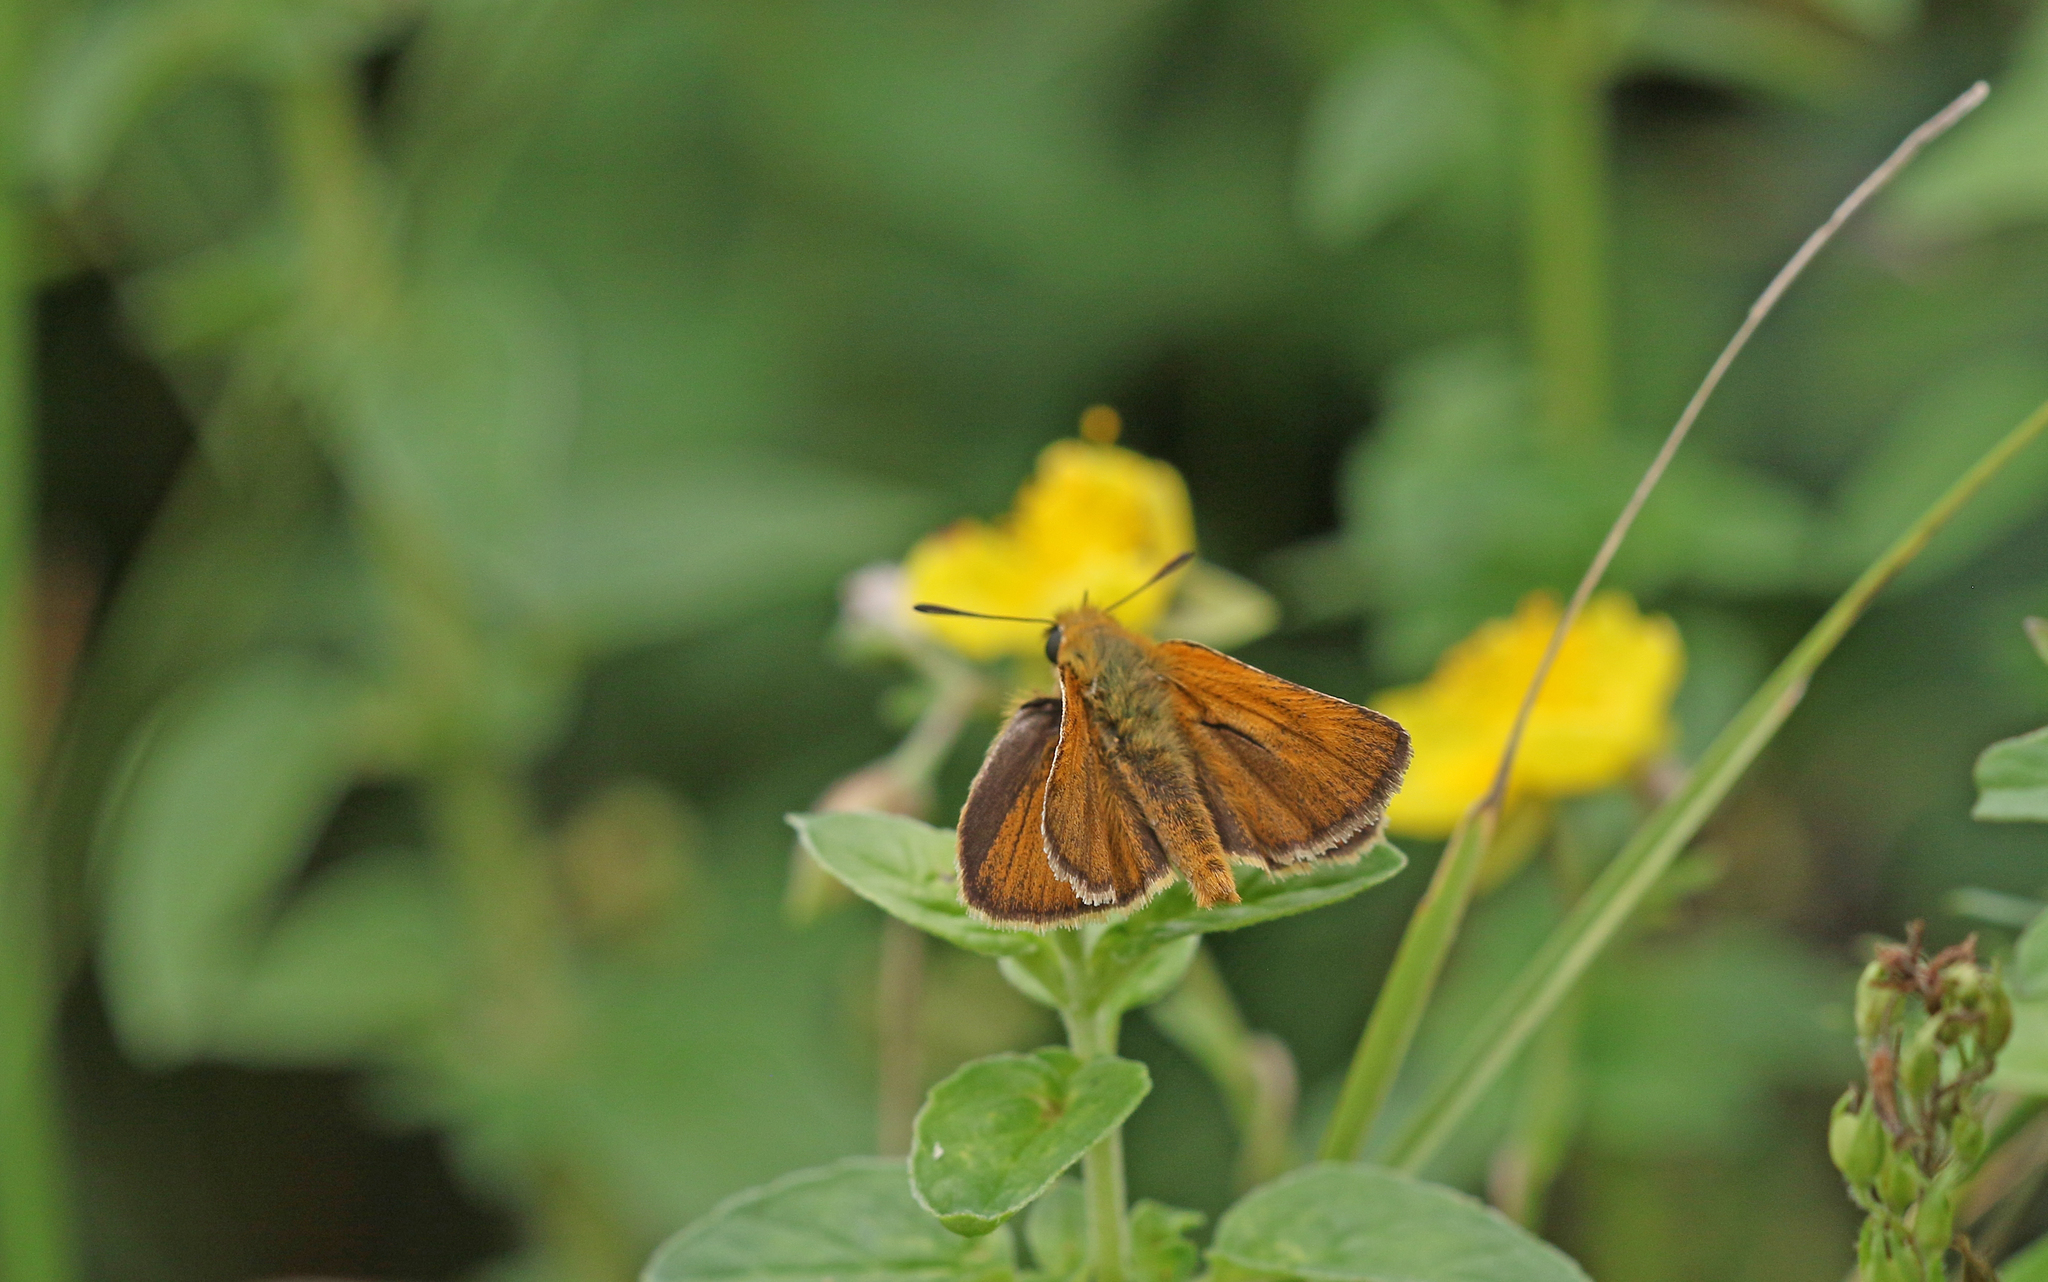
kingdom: Animalia
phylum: Arthropoda
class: Insecta
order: Lepidoptera
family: Hesperiidae
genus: Thymelicus
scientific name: Thymelicus acteon
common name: Lulworth skipper
